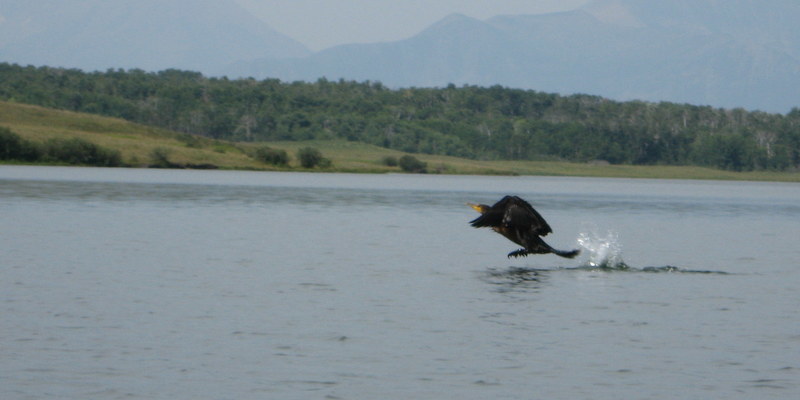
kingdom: Animalia
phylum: Chordata
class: Aves
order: Suliformes
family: Phalacrocoracidae
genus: Phalacrocorax
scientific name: Phalacrocorax auritus
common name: Double-crested cormorant
